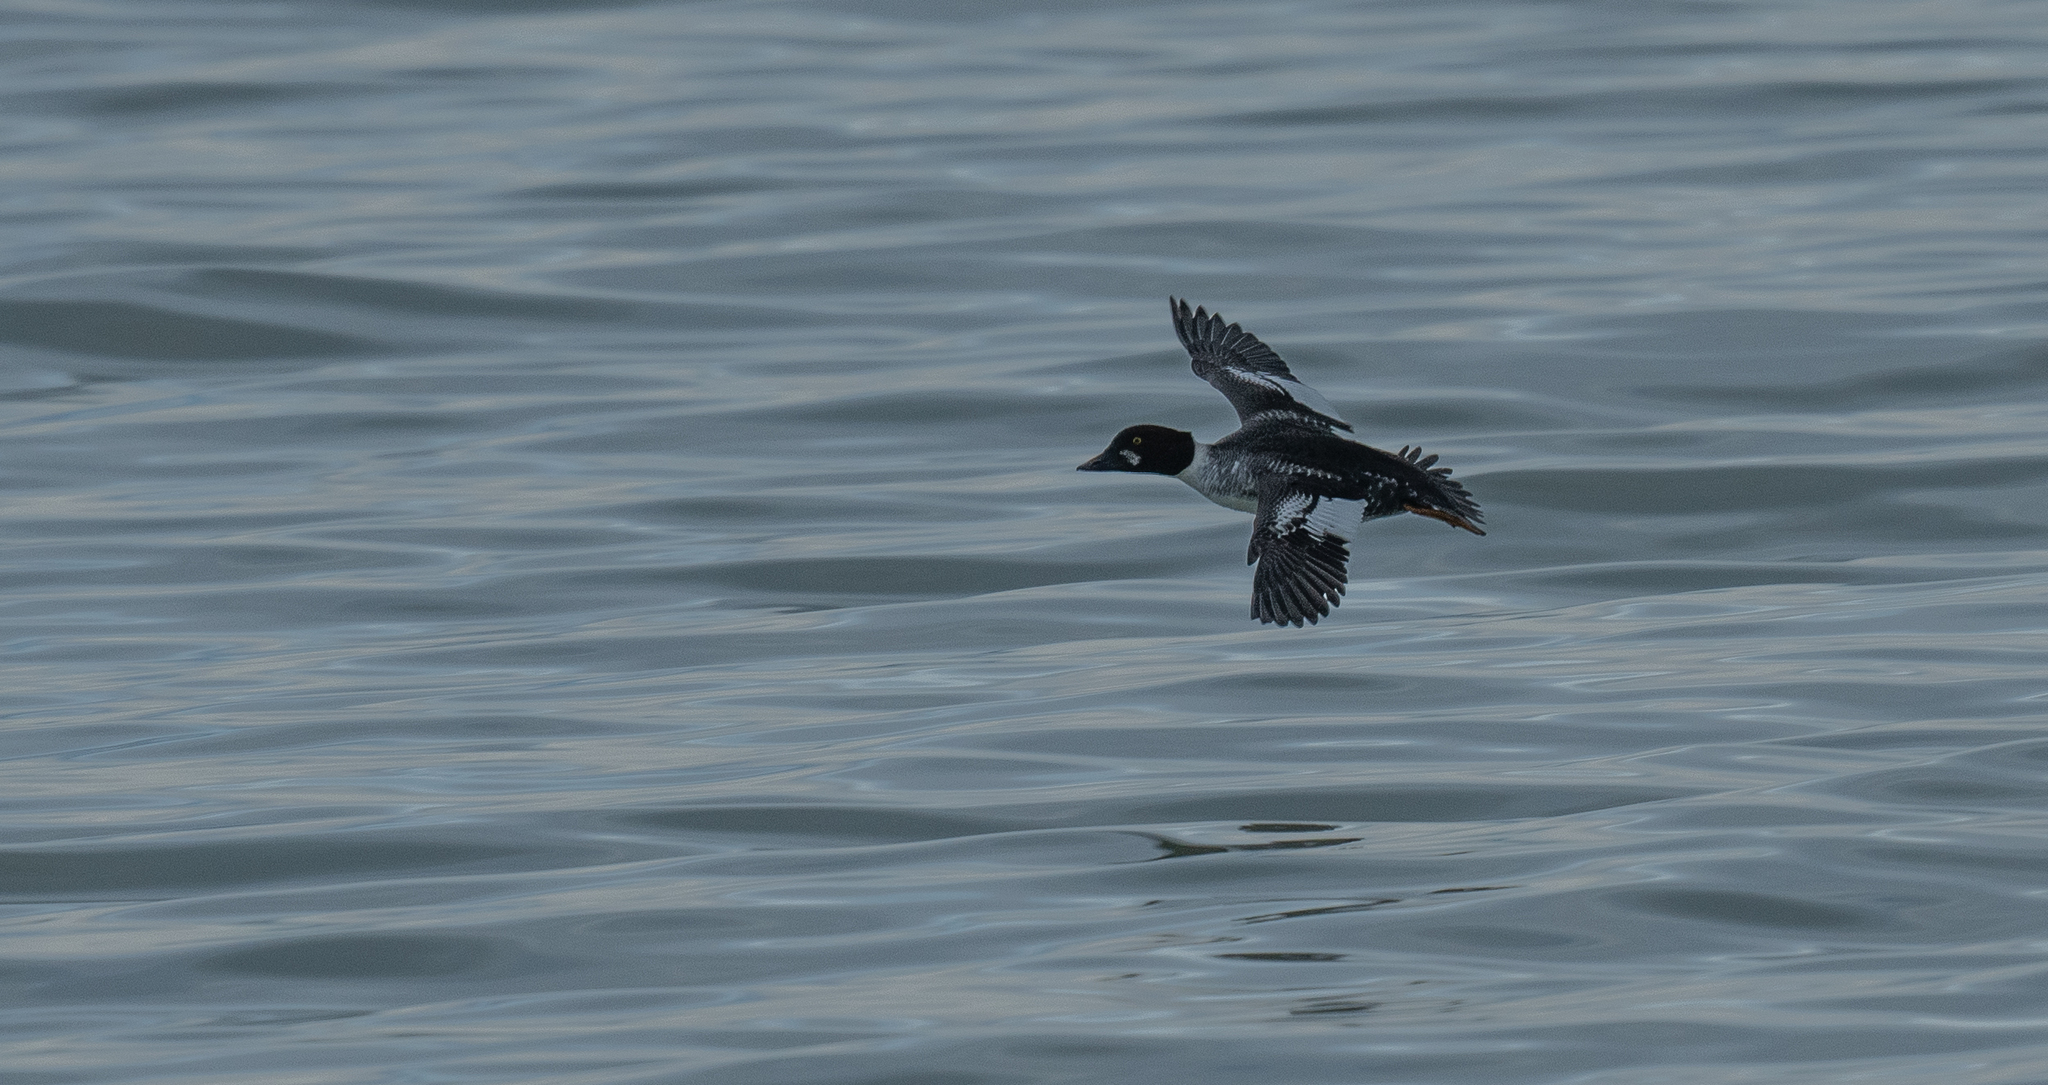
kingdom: Animalia
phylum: Chordata
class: Aves
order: Anseriformes
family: Anatidae
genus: Bucephala
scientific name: Bucephala clangula
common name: Common goldeneye
